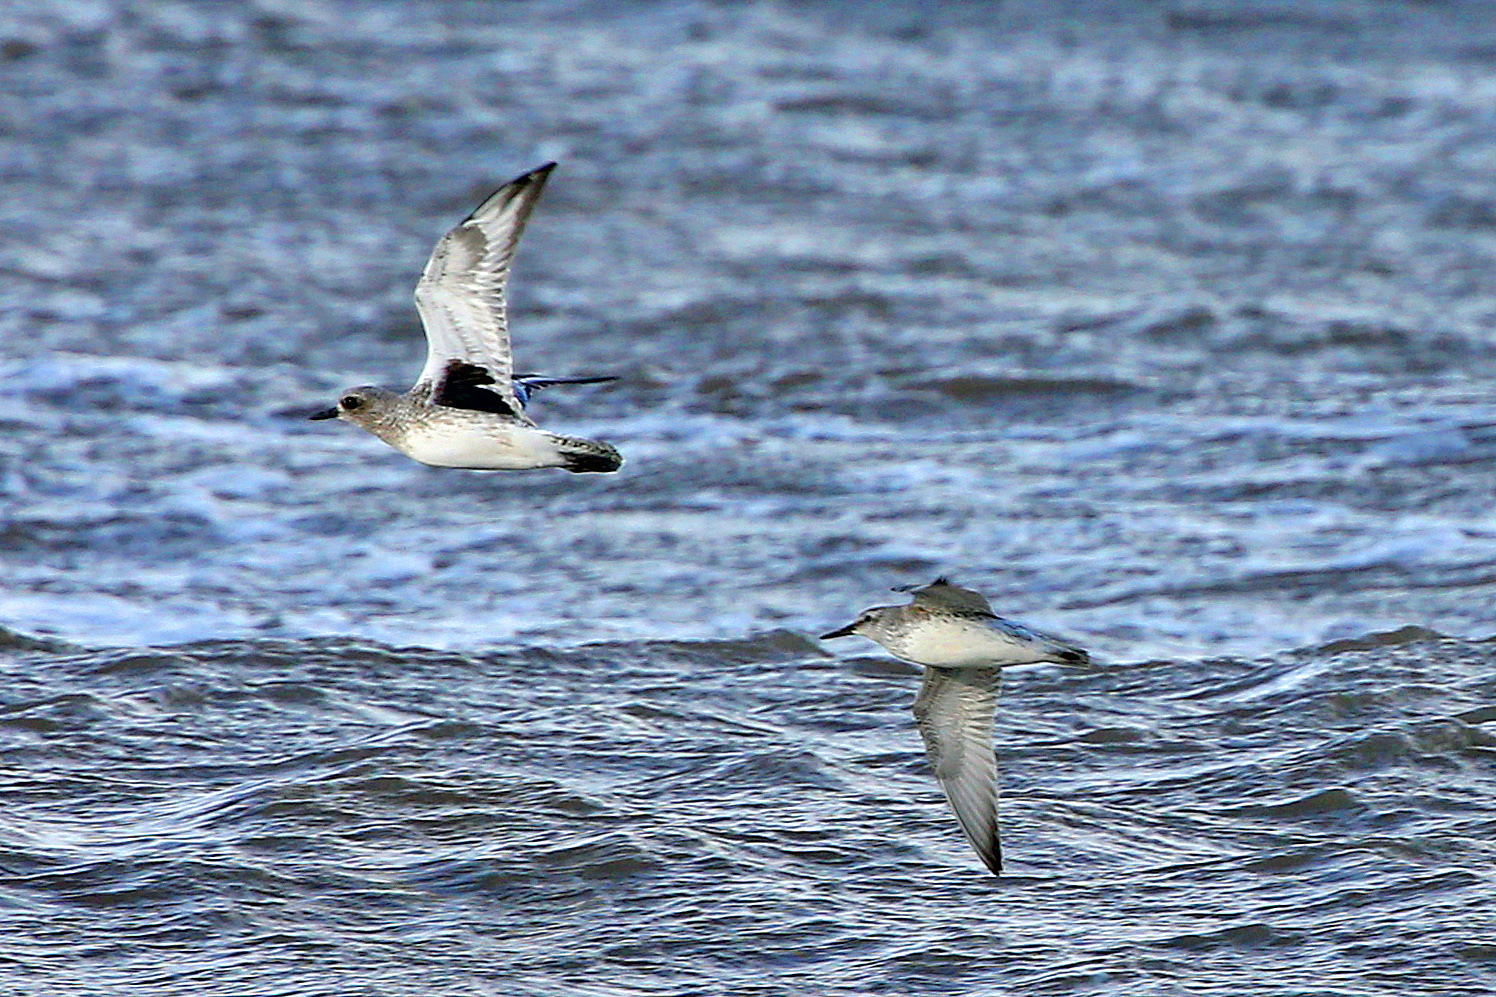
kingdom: Animalia
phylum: Chordata
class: Aves
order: Charadriiformes
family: Charadriidae
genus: Pluvialis
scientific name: Pluvialis squatarola
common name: Grey plover
